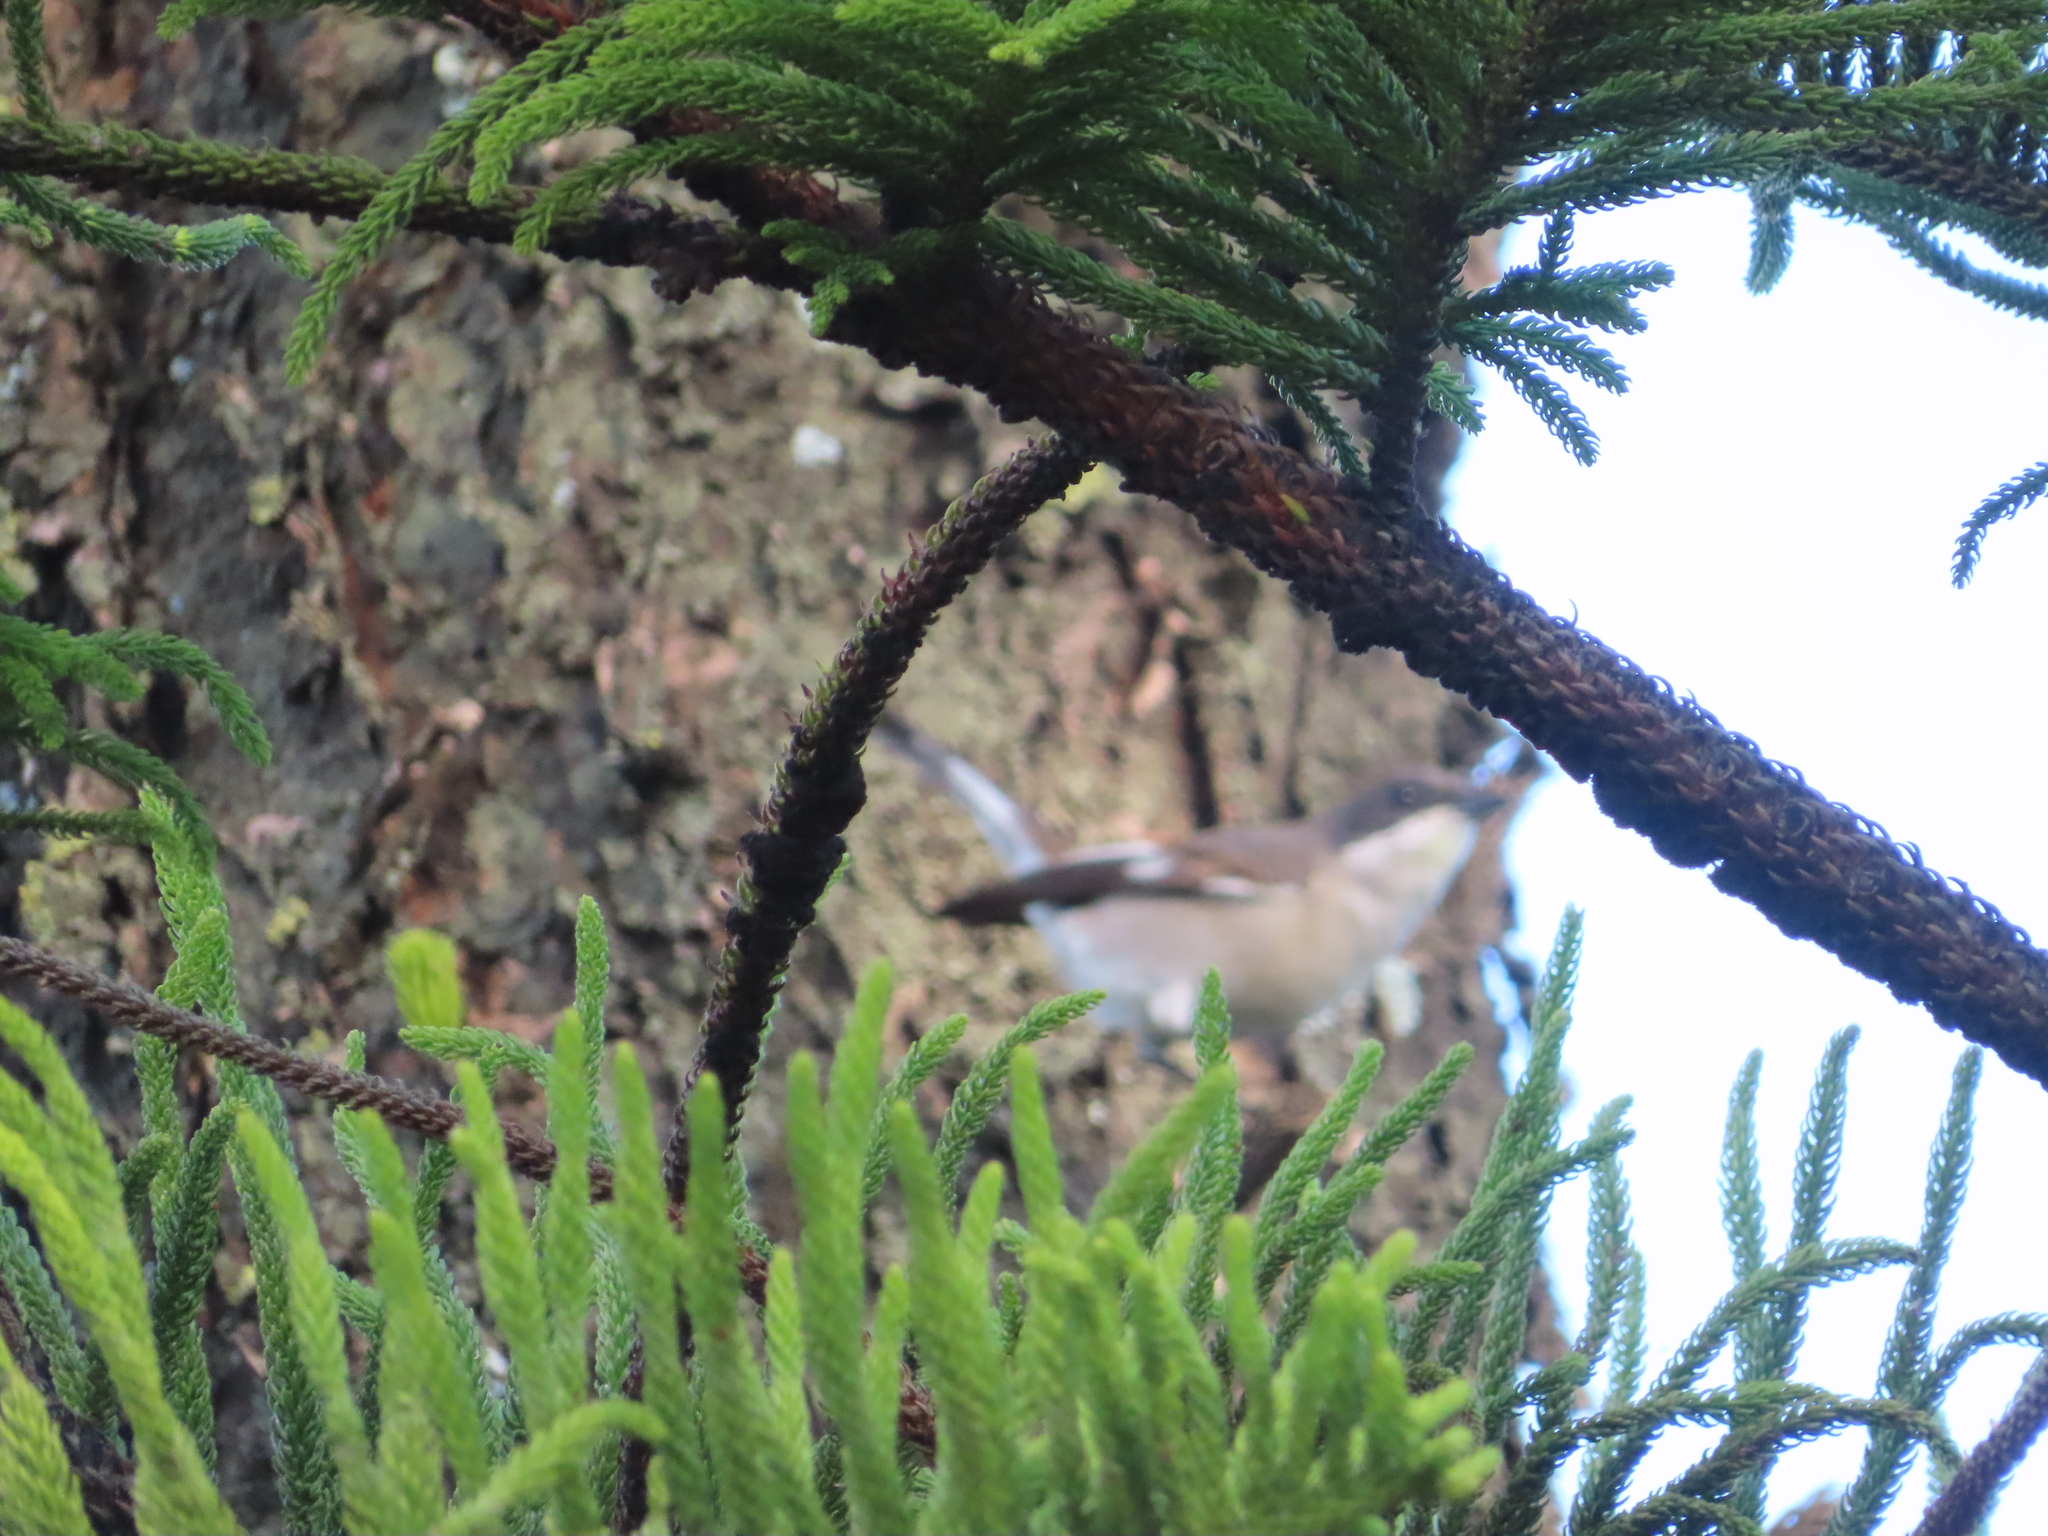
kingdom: Animalia
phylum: Chordata
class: Aves
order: Passeriformes
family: Muscicapidae
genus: Sigelus
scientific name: Sigelus silens
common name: Fiscal flycatcher
